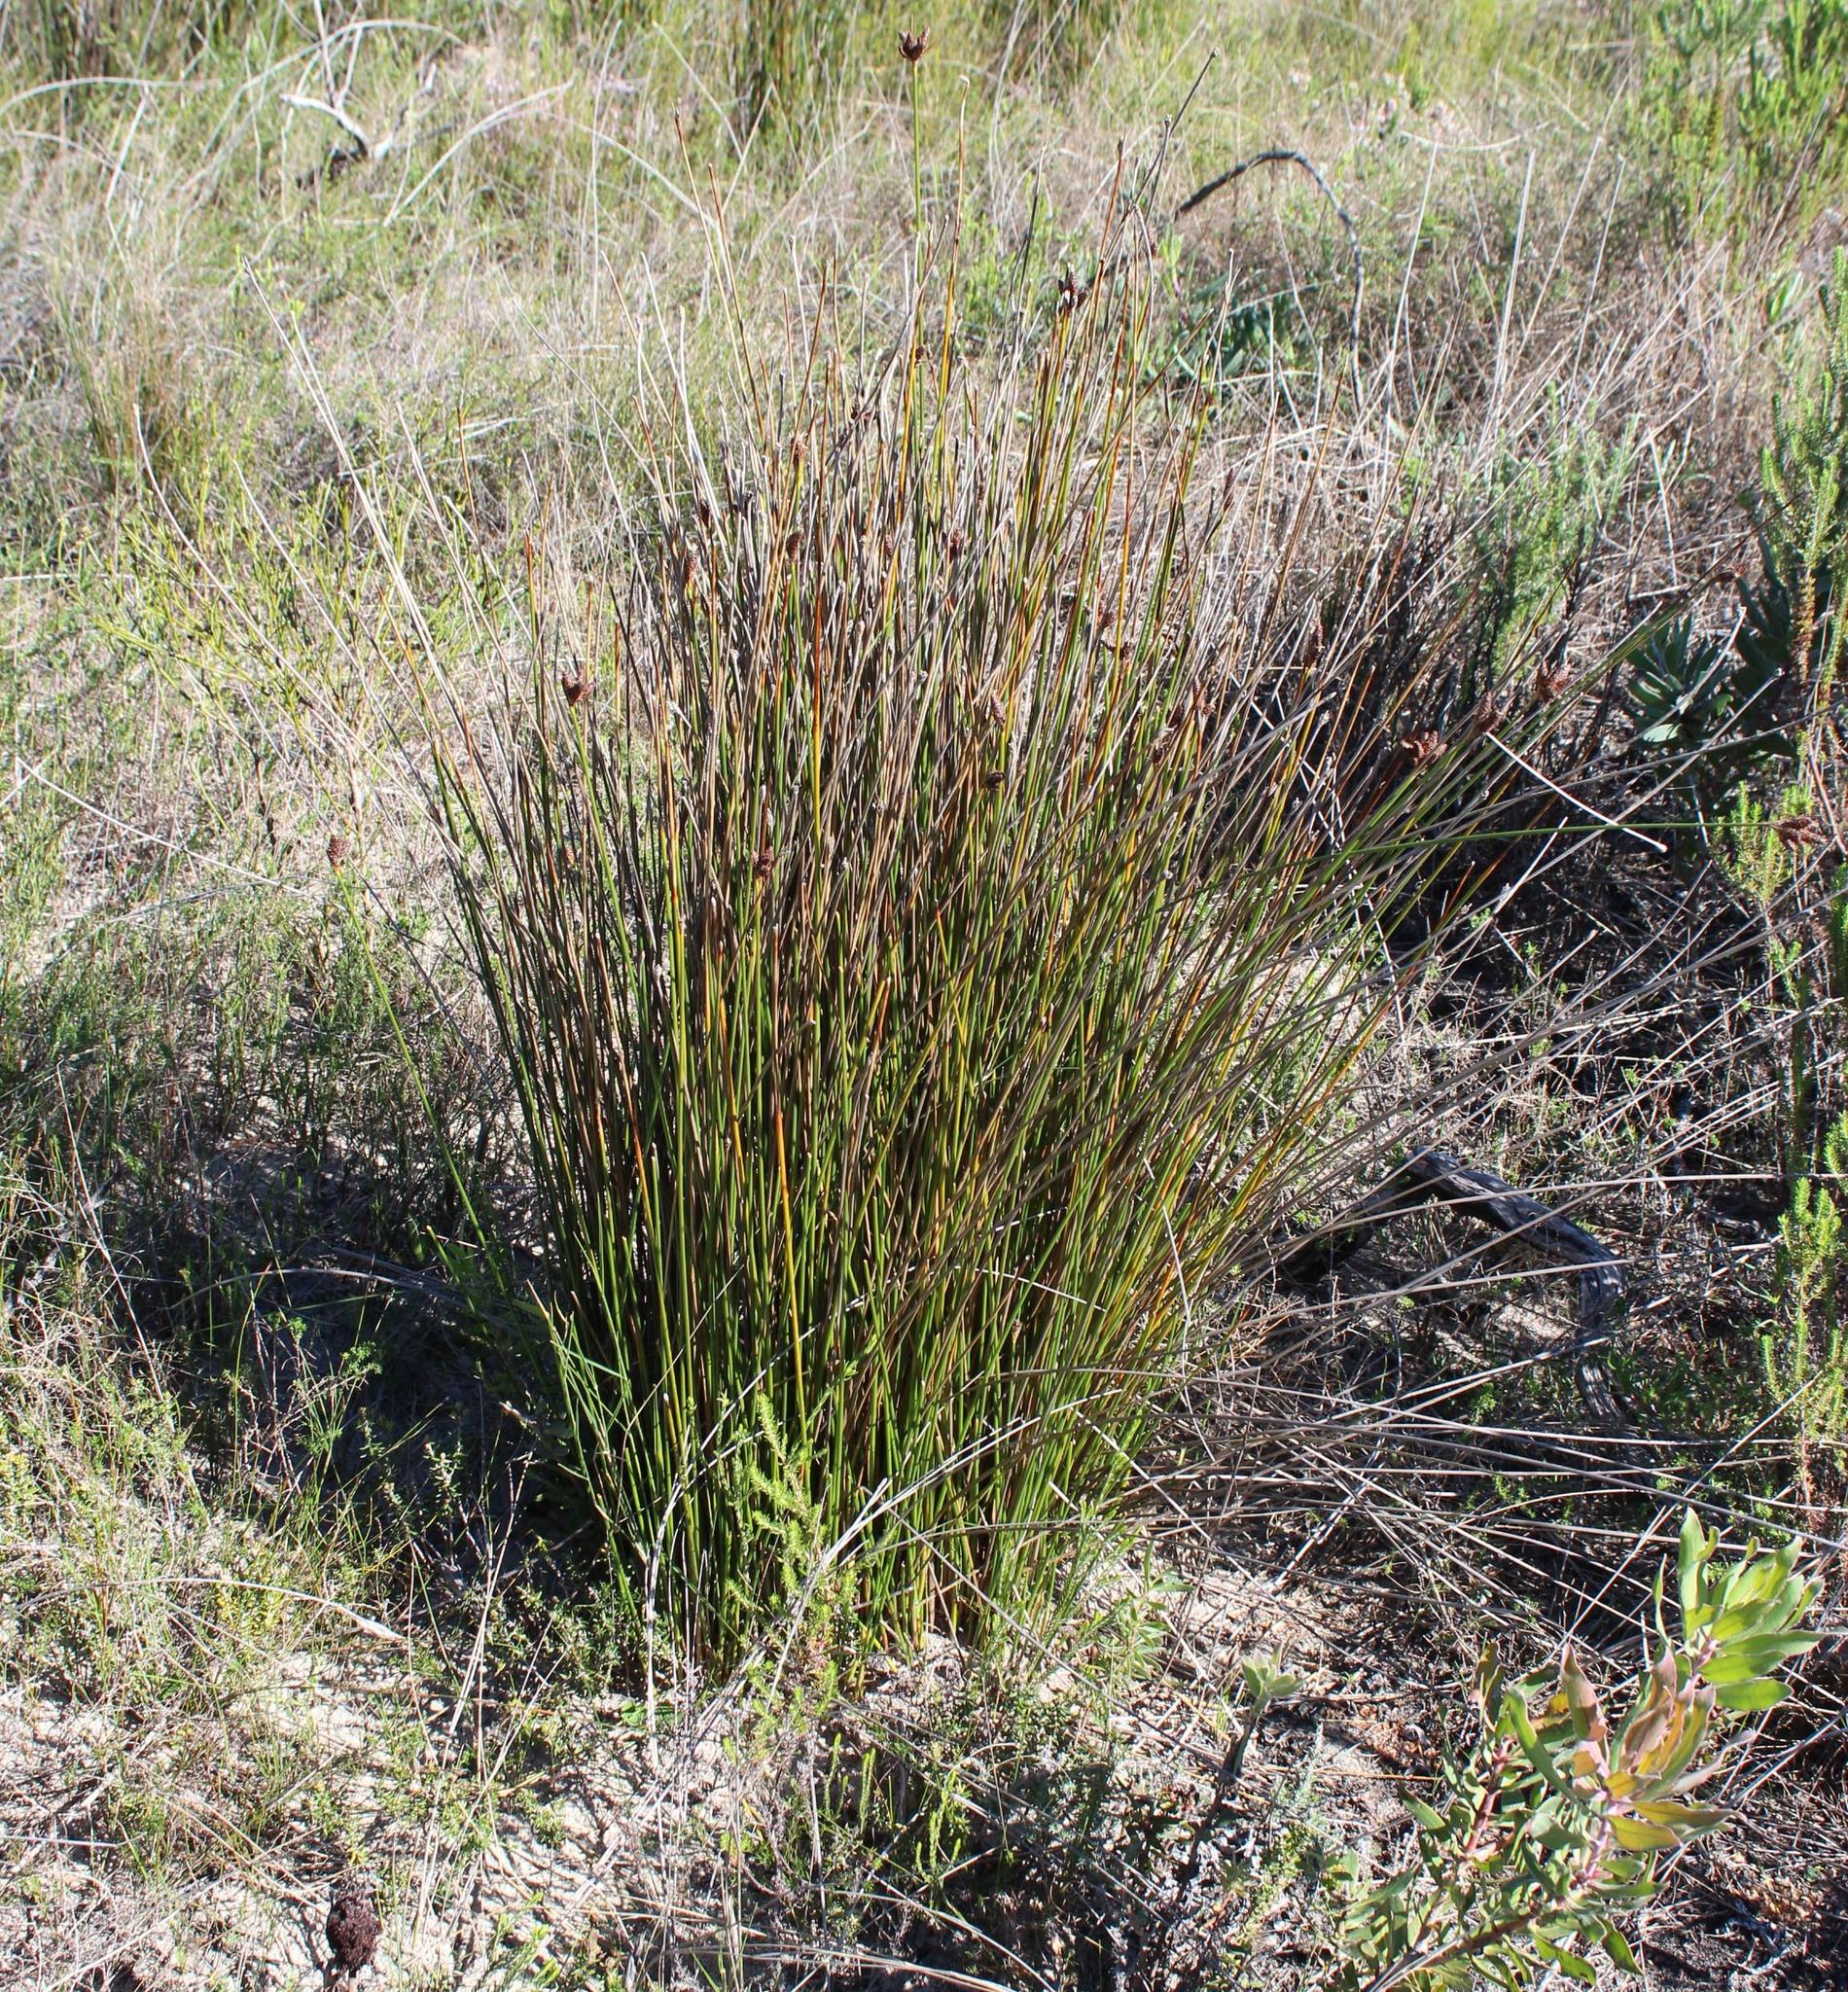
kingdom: Plantae
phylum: Tracheophyta
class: Liliopsida
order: Poales
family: Cyperaceae
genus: Hellmuthia
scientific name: Hellmuthia membranacea
